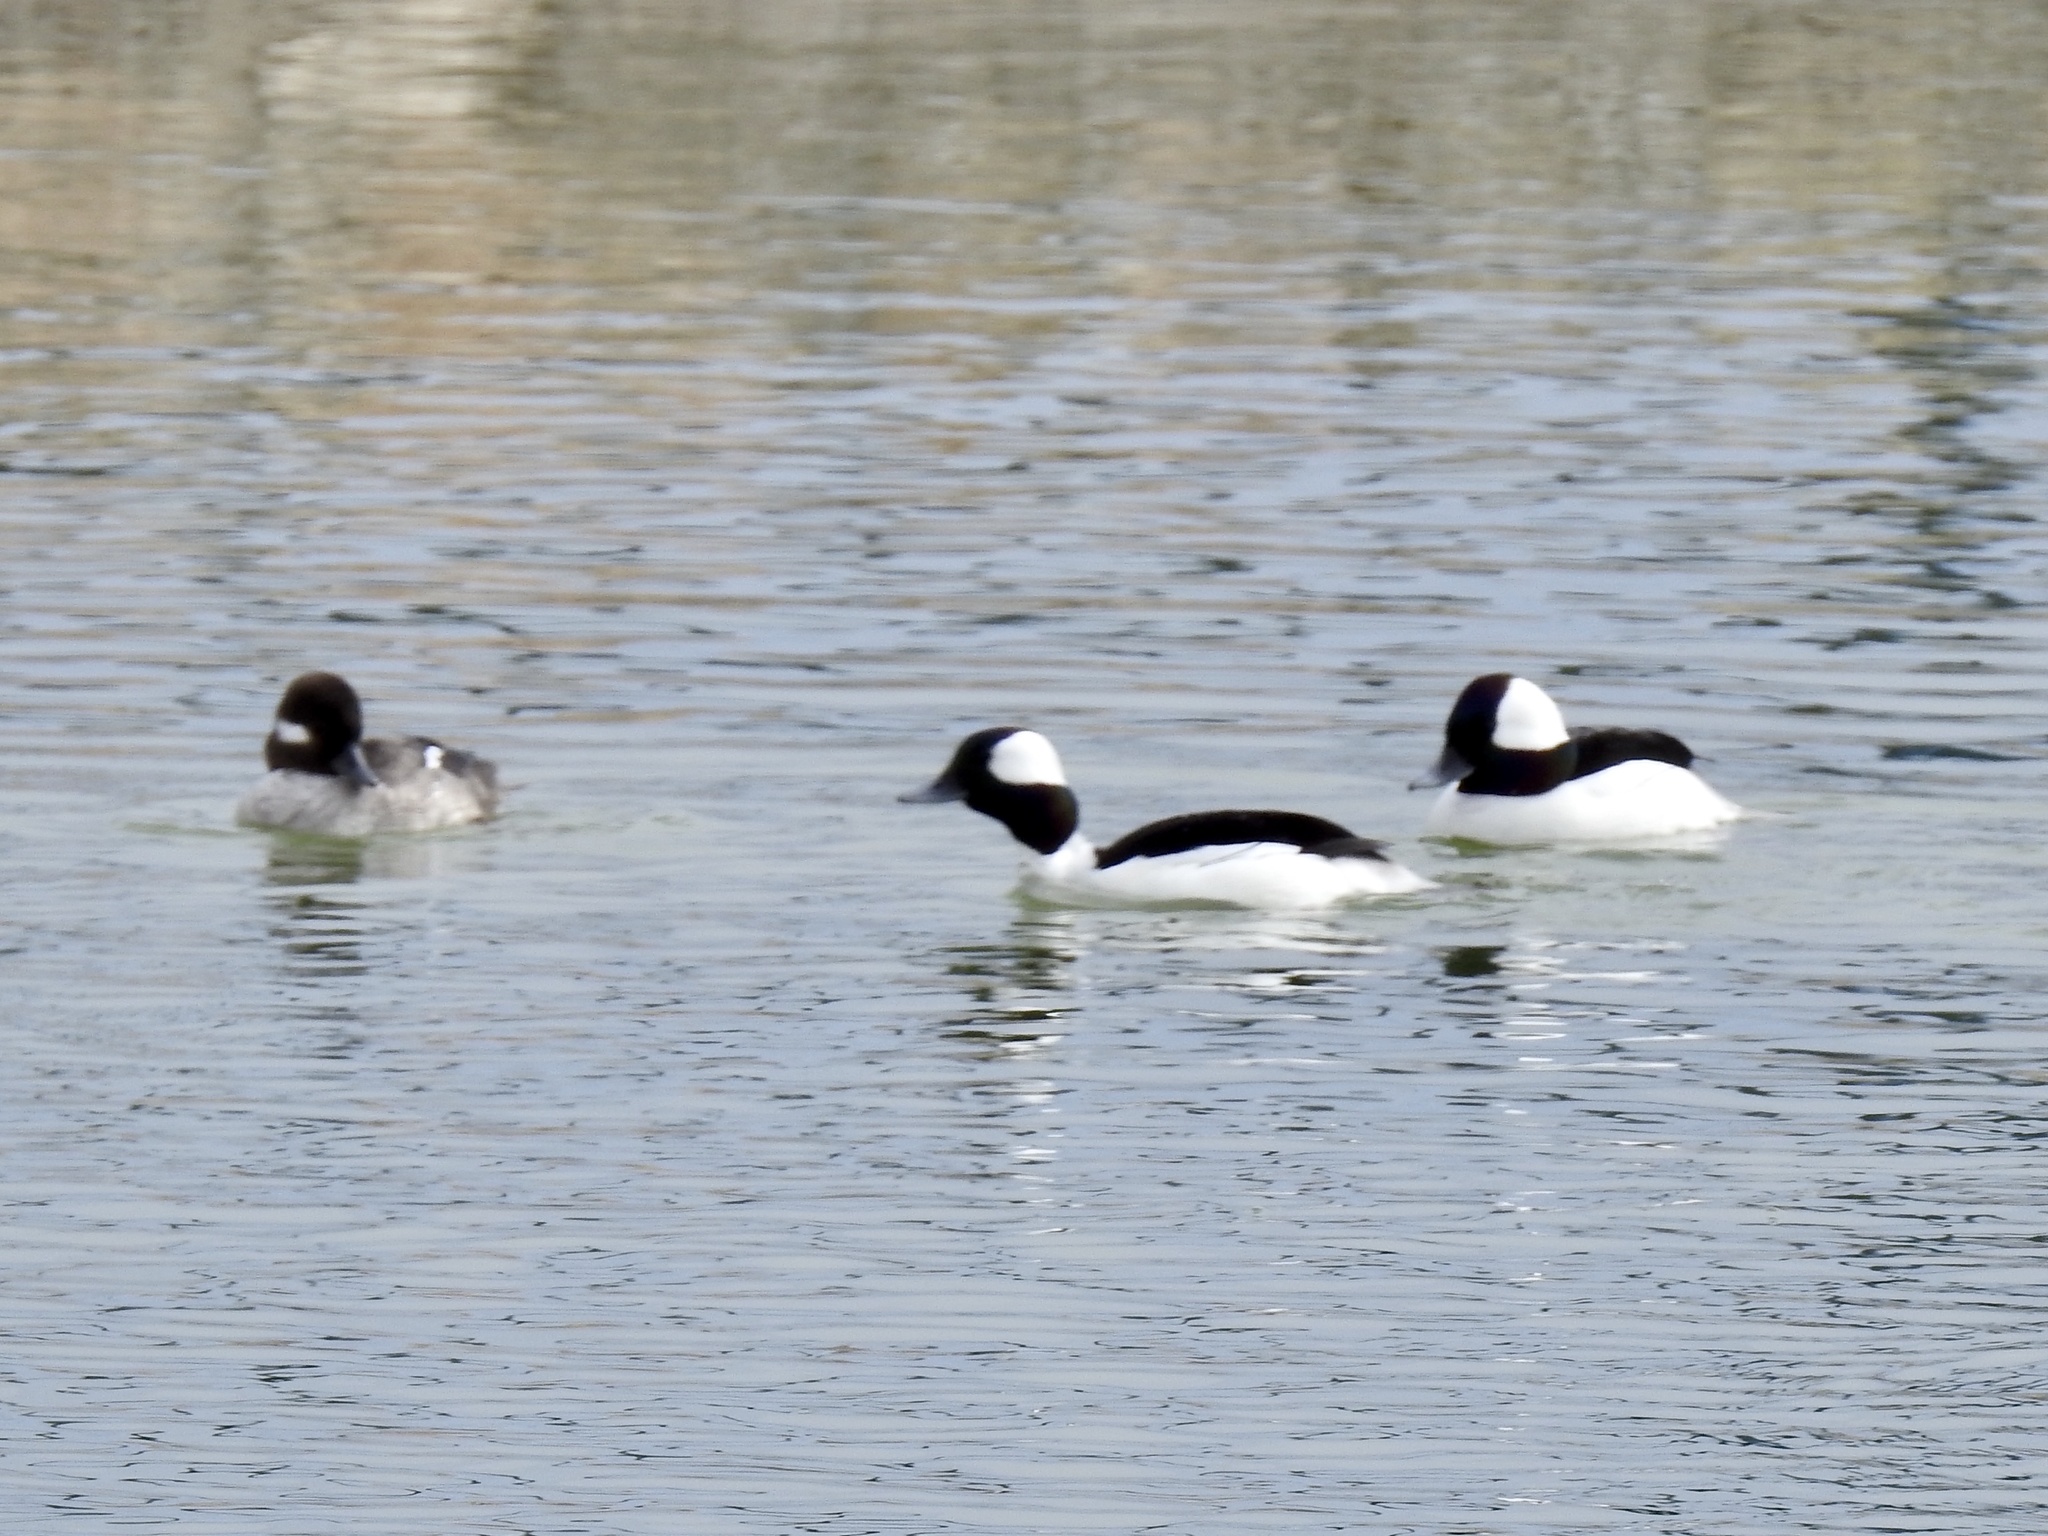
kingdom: Animalia
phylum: Chordata
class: Aves
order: Anseriformes
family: Anatidae
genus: Bucephala
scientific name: Bucephala albeola
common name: Bufflehead
